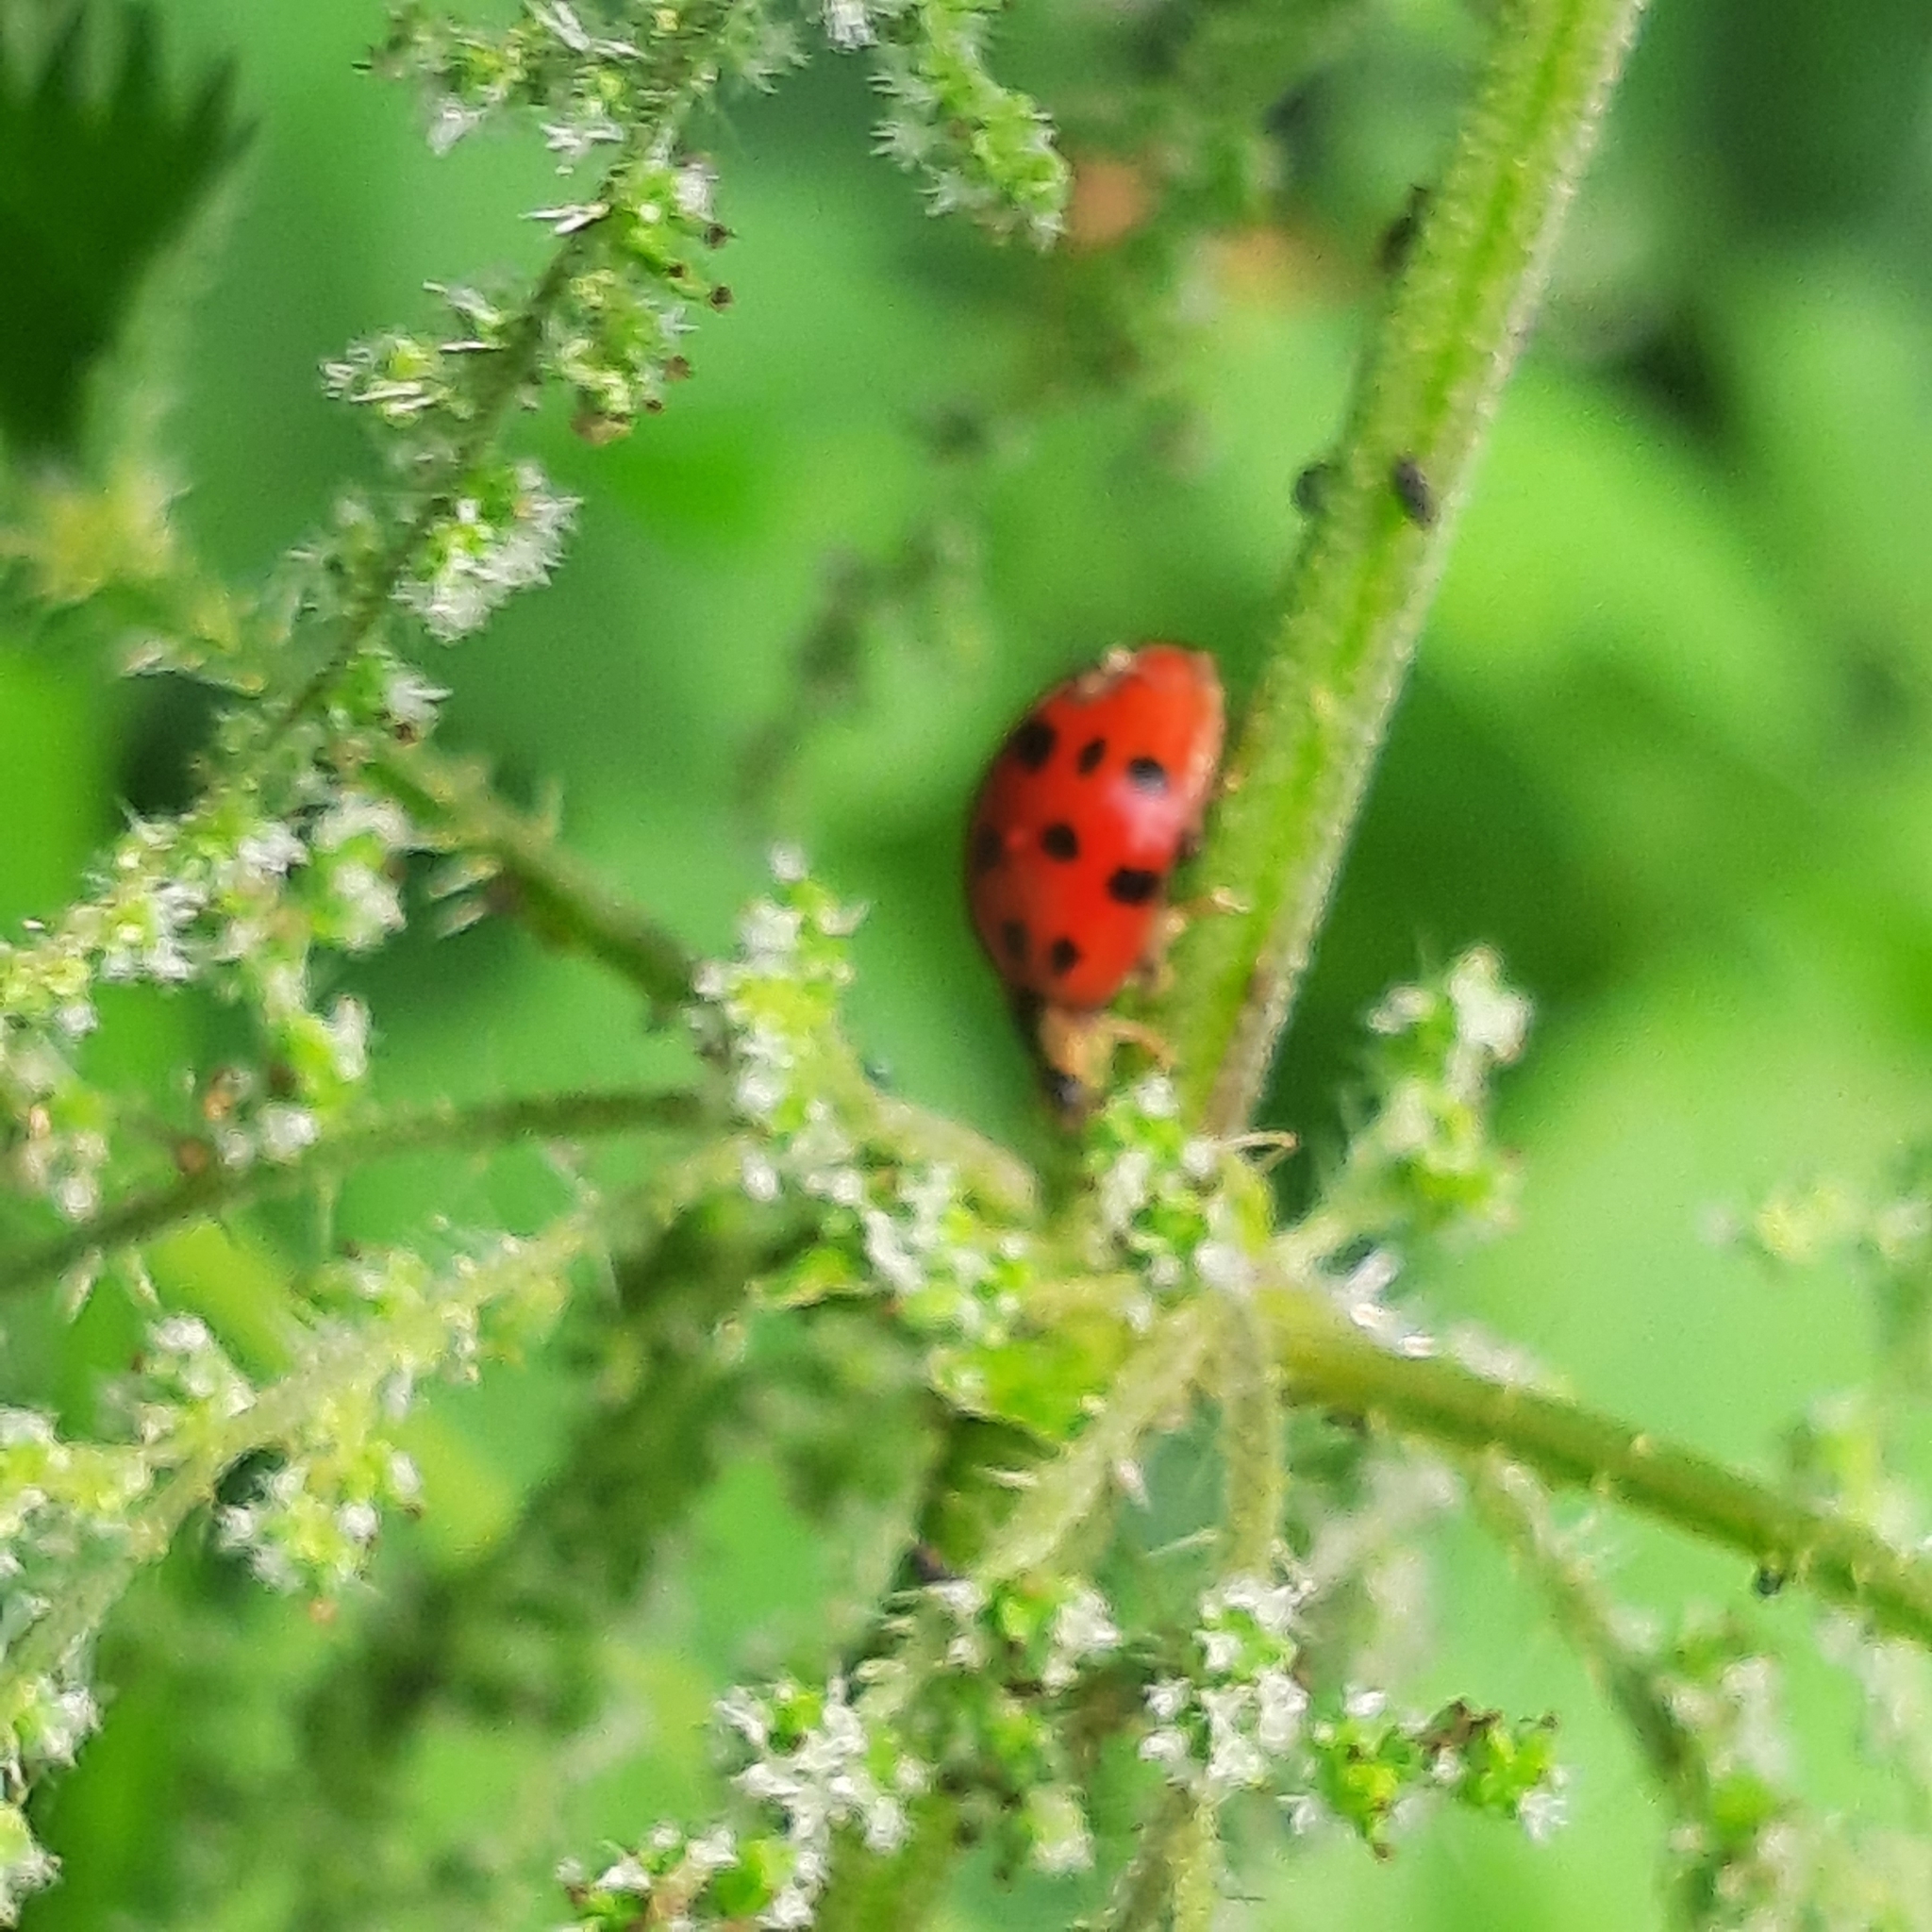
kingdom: Animalia
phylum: Arthropoda
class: Insecta
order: Coleoptera
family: Coccinellidae
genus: Harmonia
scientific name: Harmonia axyridis
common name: Harlequin ladybird
